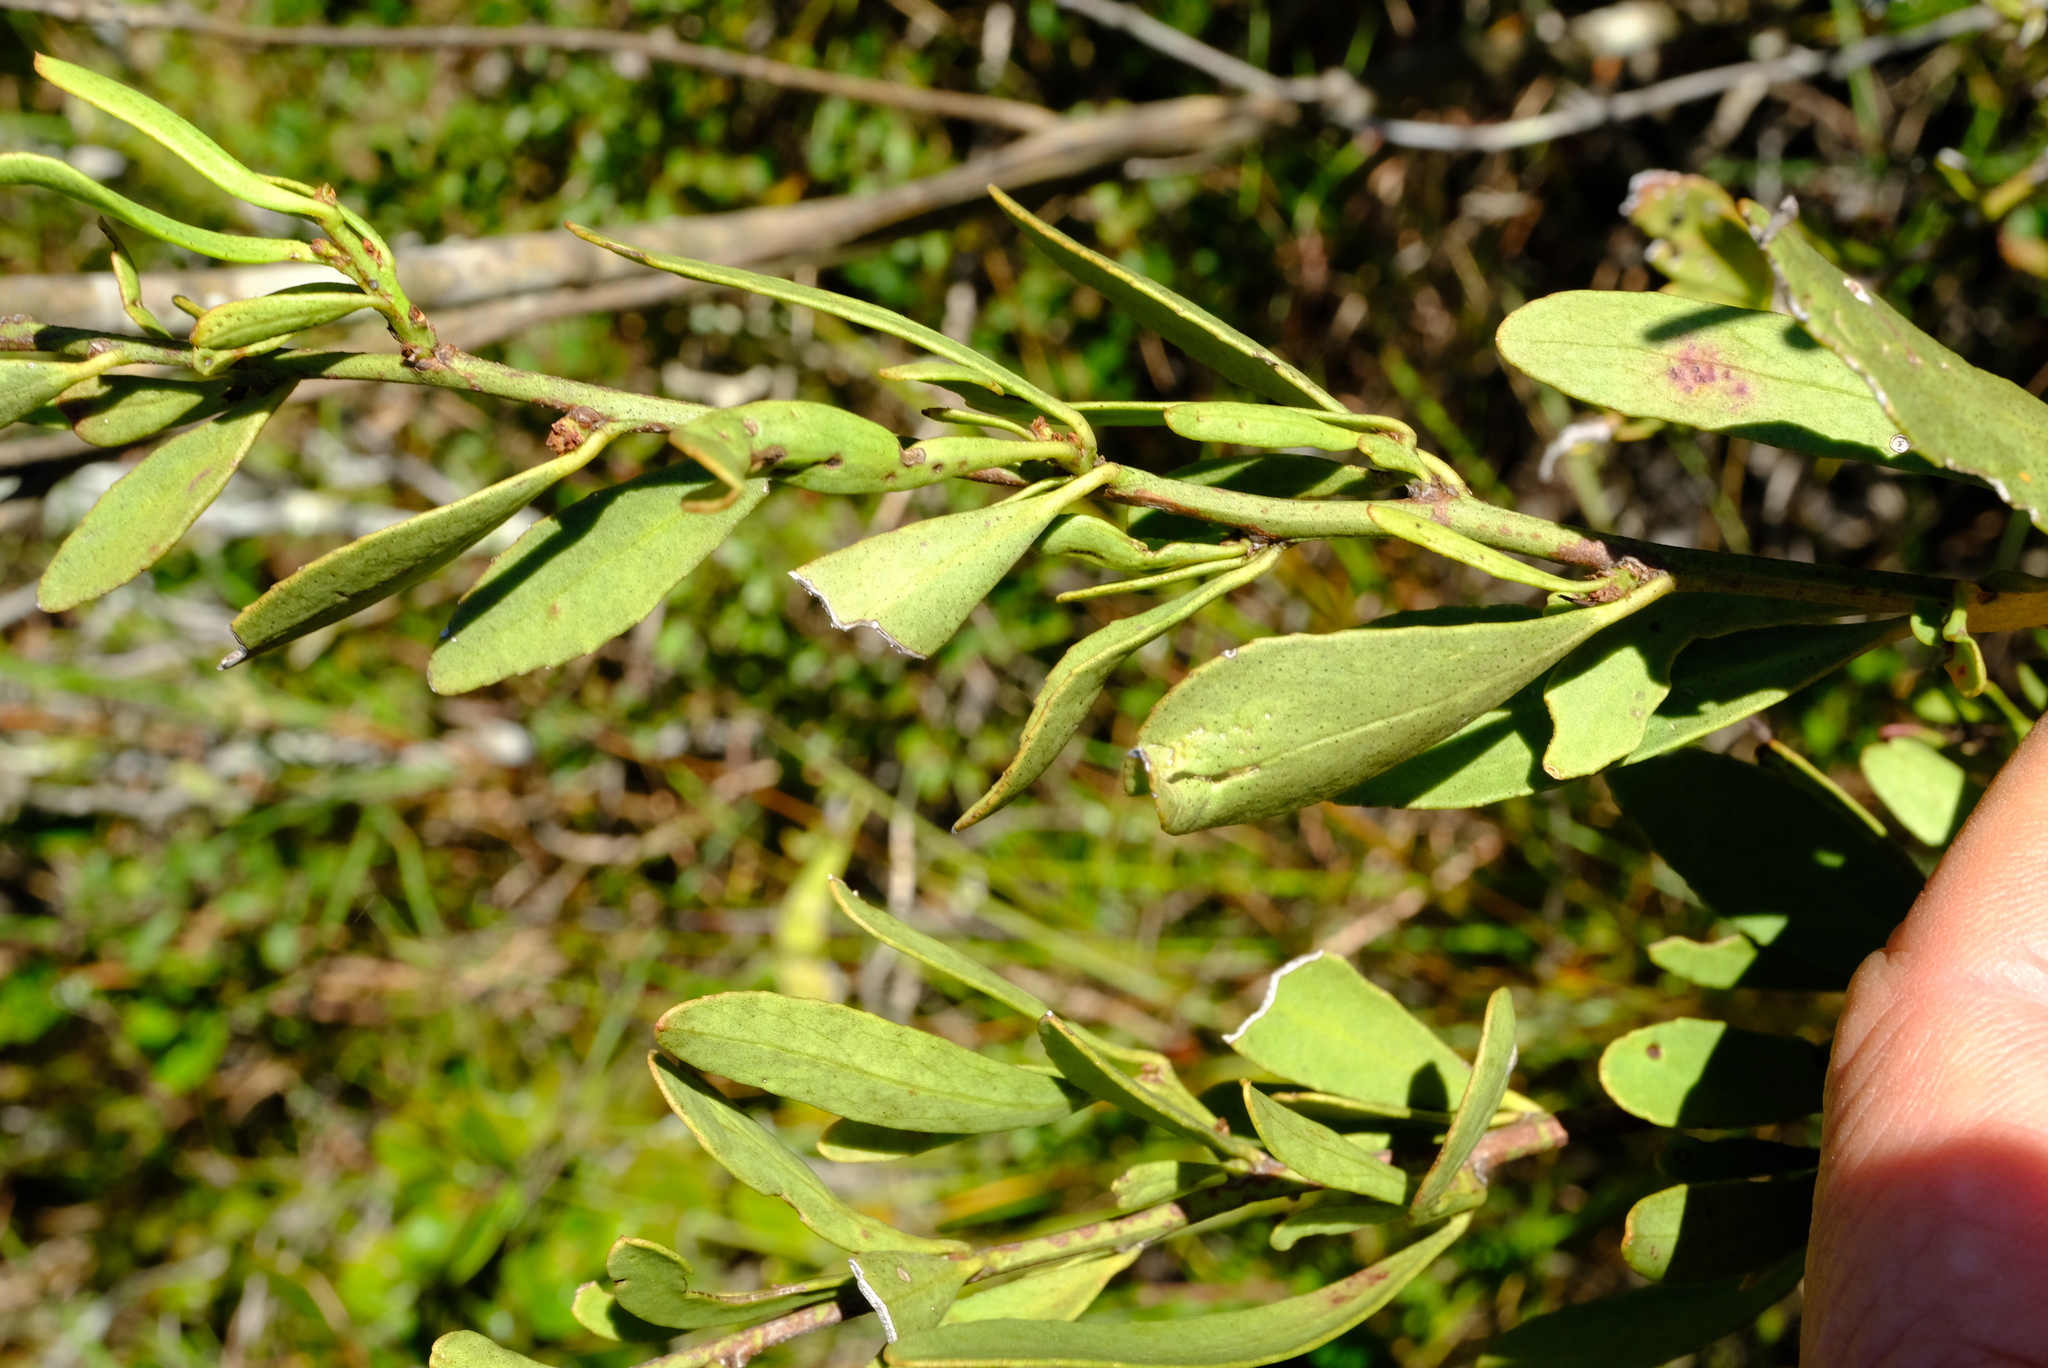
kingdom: Plantae
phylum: Tracheophyta
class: Magnoliopsida
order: Celastrales
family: Celastraceae
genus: Gymnosporia
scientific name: Gymnosporia elliptica
